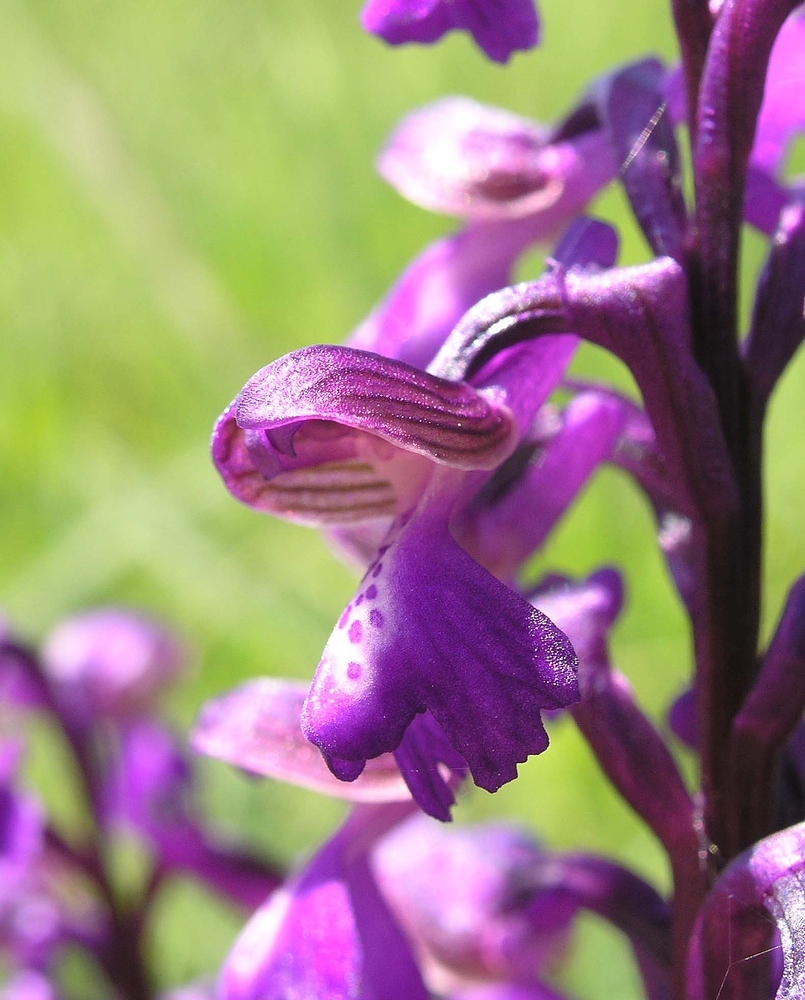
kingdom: Plantae
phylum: Tracheophyta
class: Liliopsida
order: Asparagales
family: Orchidaceae
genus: Anacamptis
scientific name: Anacamptis morio
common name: Green-winged orchid
